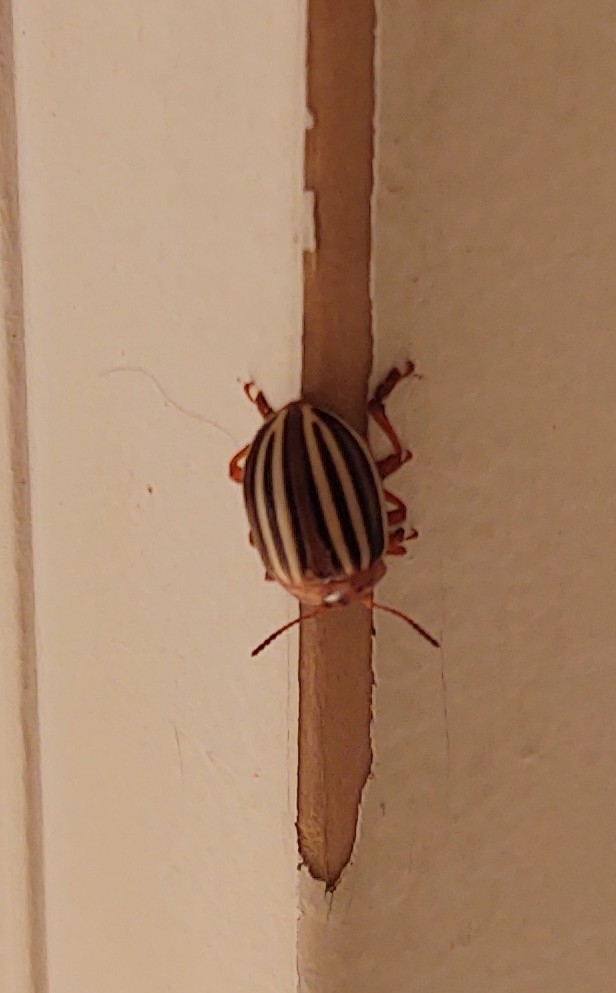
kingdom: Animalia
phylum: Arthropoda
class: Insecta
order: Coleoptera
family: Chrysomelidae
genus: Leptinotarsa
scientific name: Leptinotarsa juncta
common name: False potato beetle
